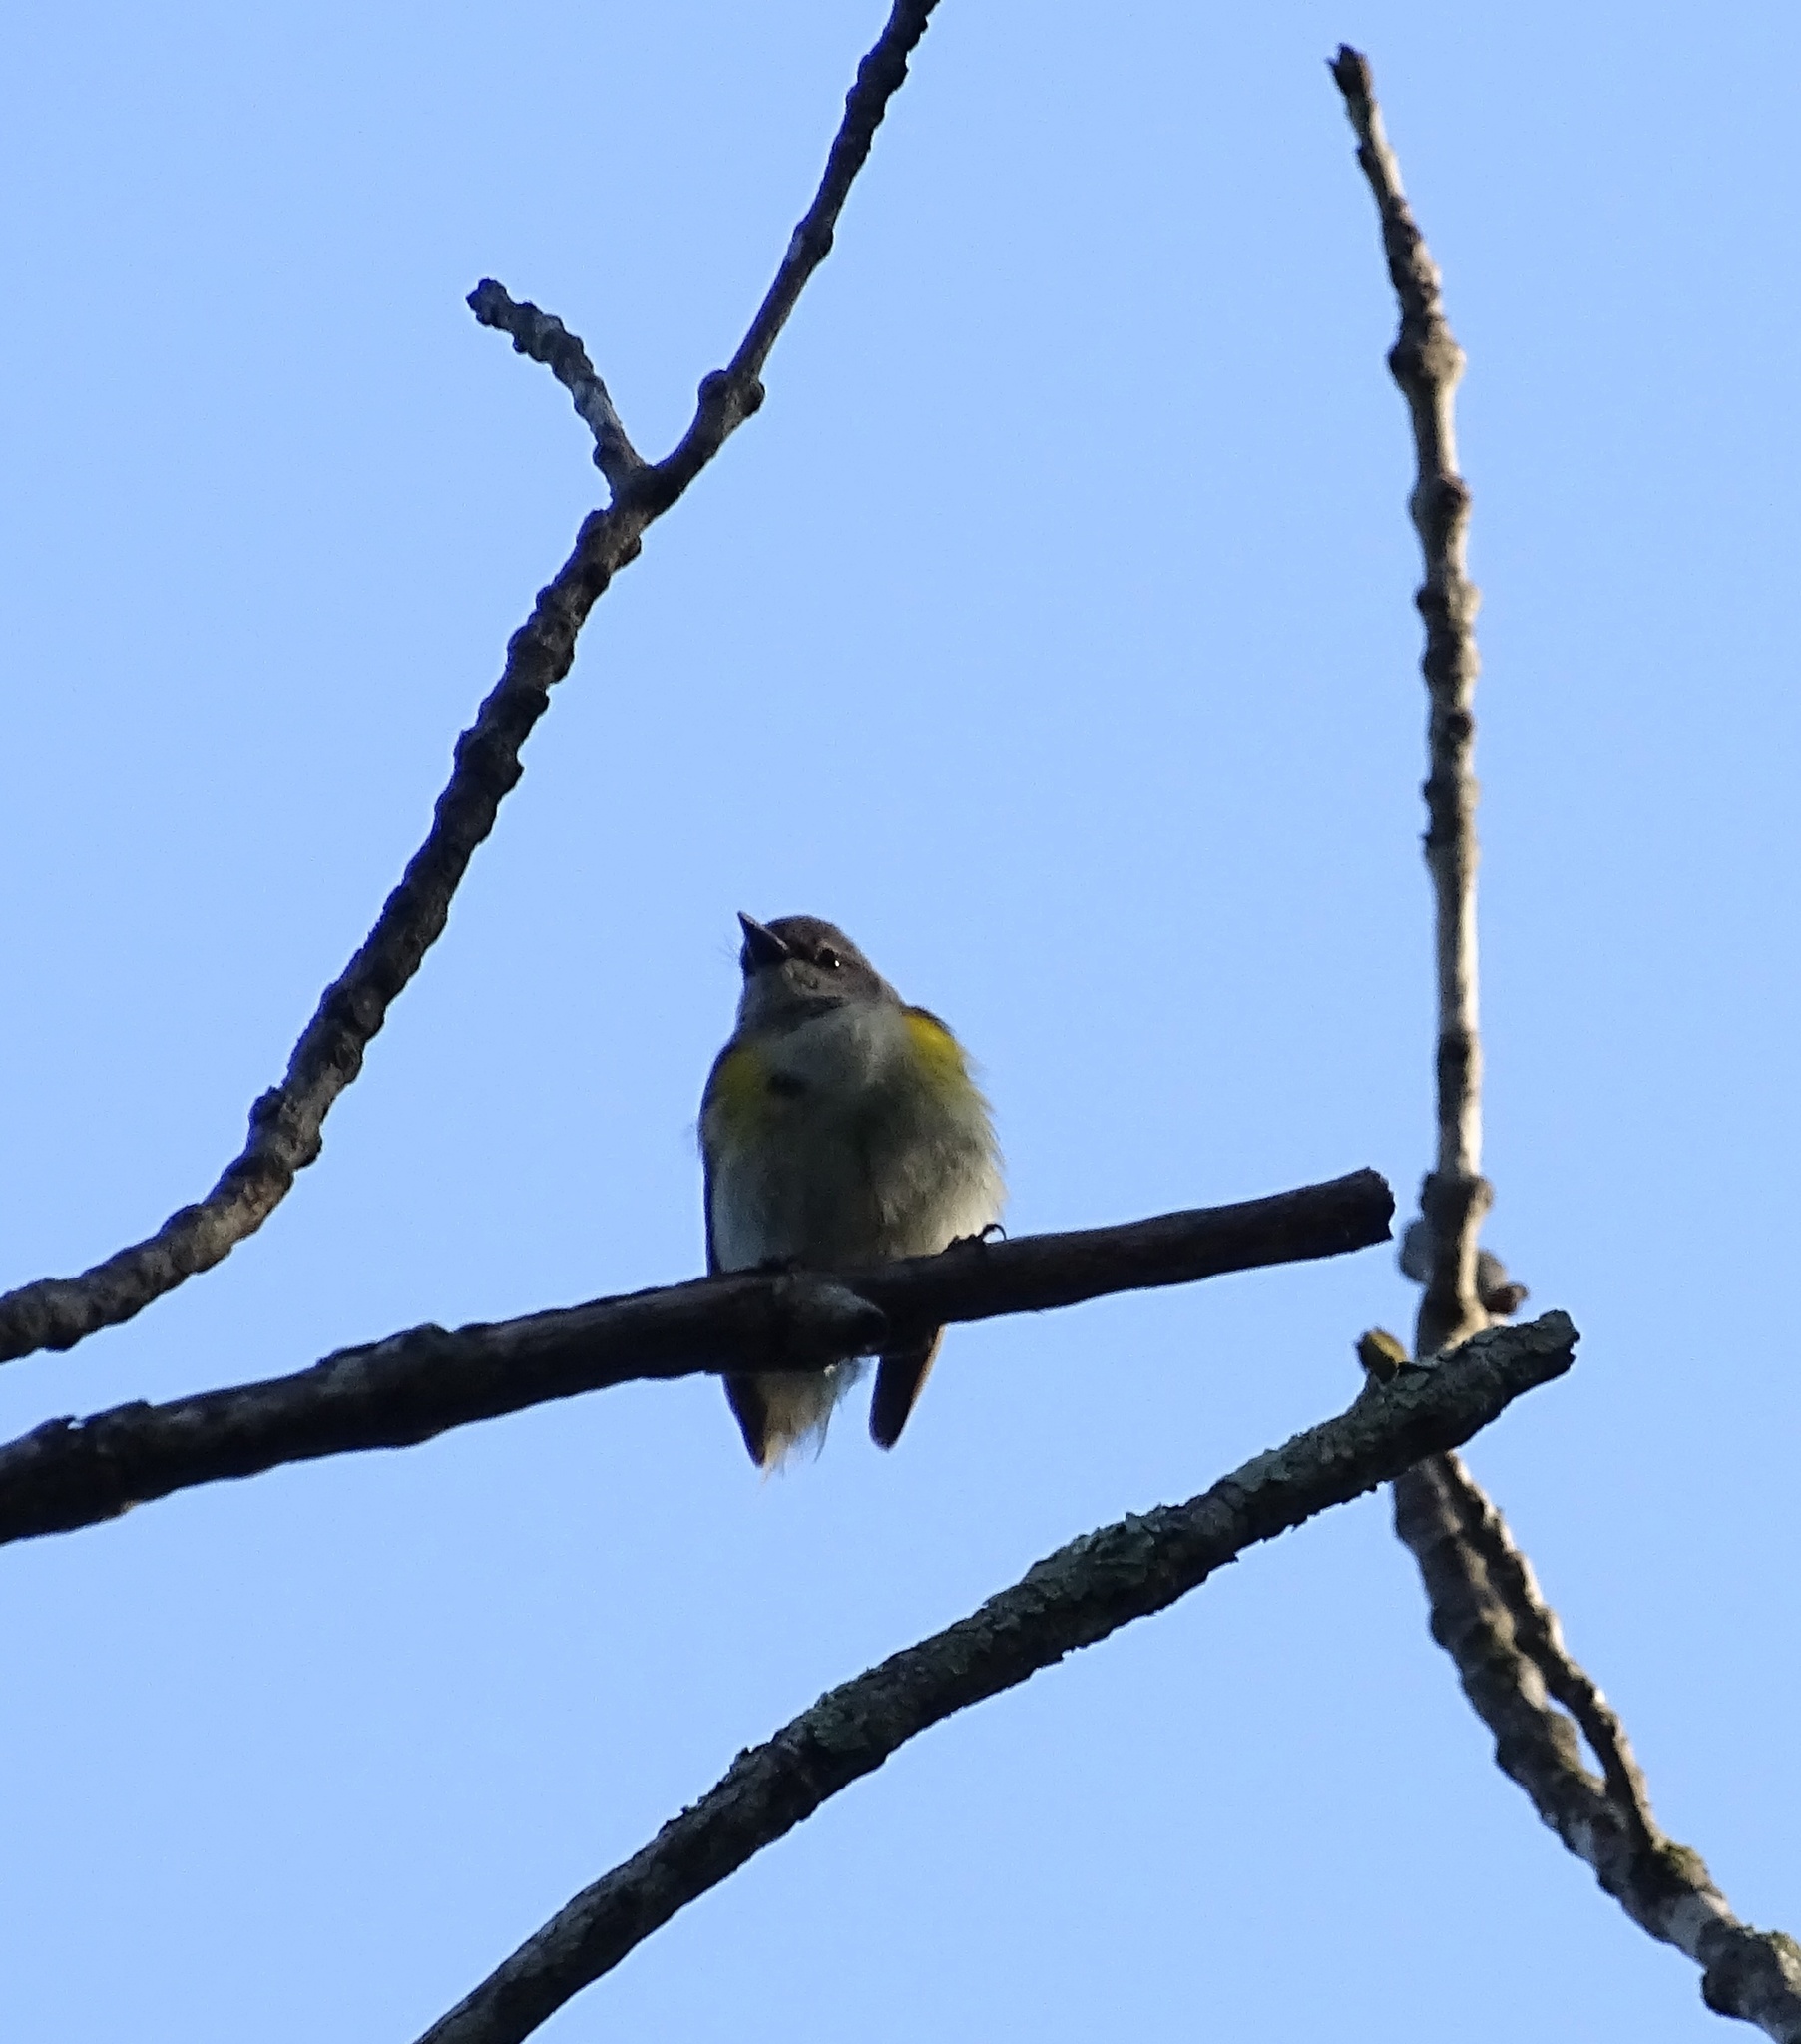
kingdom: Animalia
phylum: Chordata
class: Aves
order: Passeriformes
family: Parulidae
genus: Setophaga
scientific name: Setophaga ruticilla
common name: American redstart
